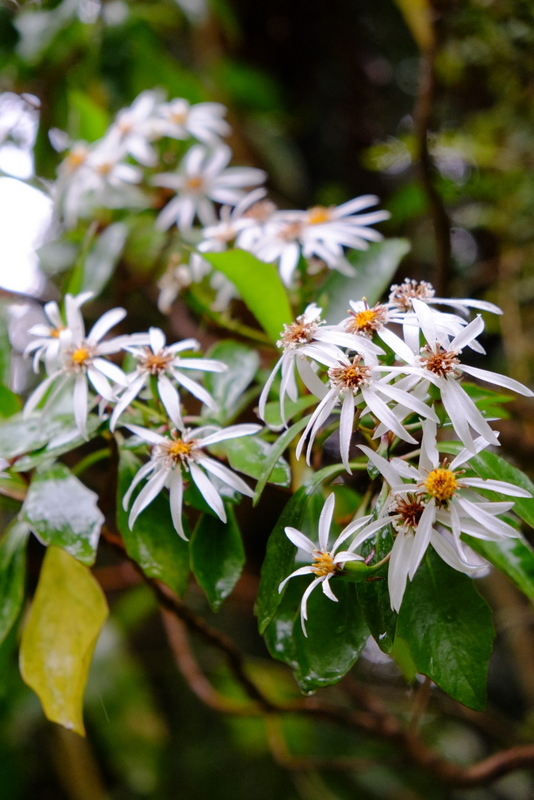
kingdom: Plantae
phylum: Tracheophyta
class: Magnoliopsida
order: Asterales
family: Asteraceae
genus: Brachyglottis
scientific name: Brachyglottis kirkii
